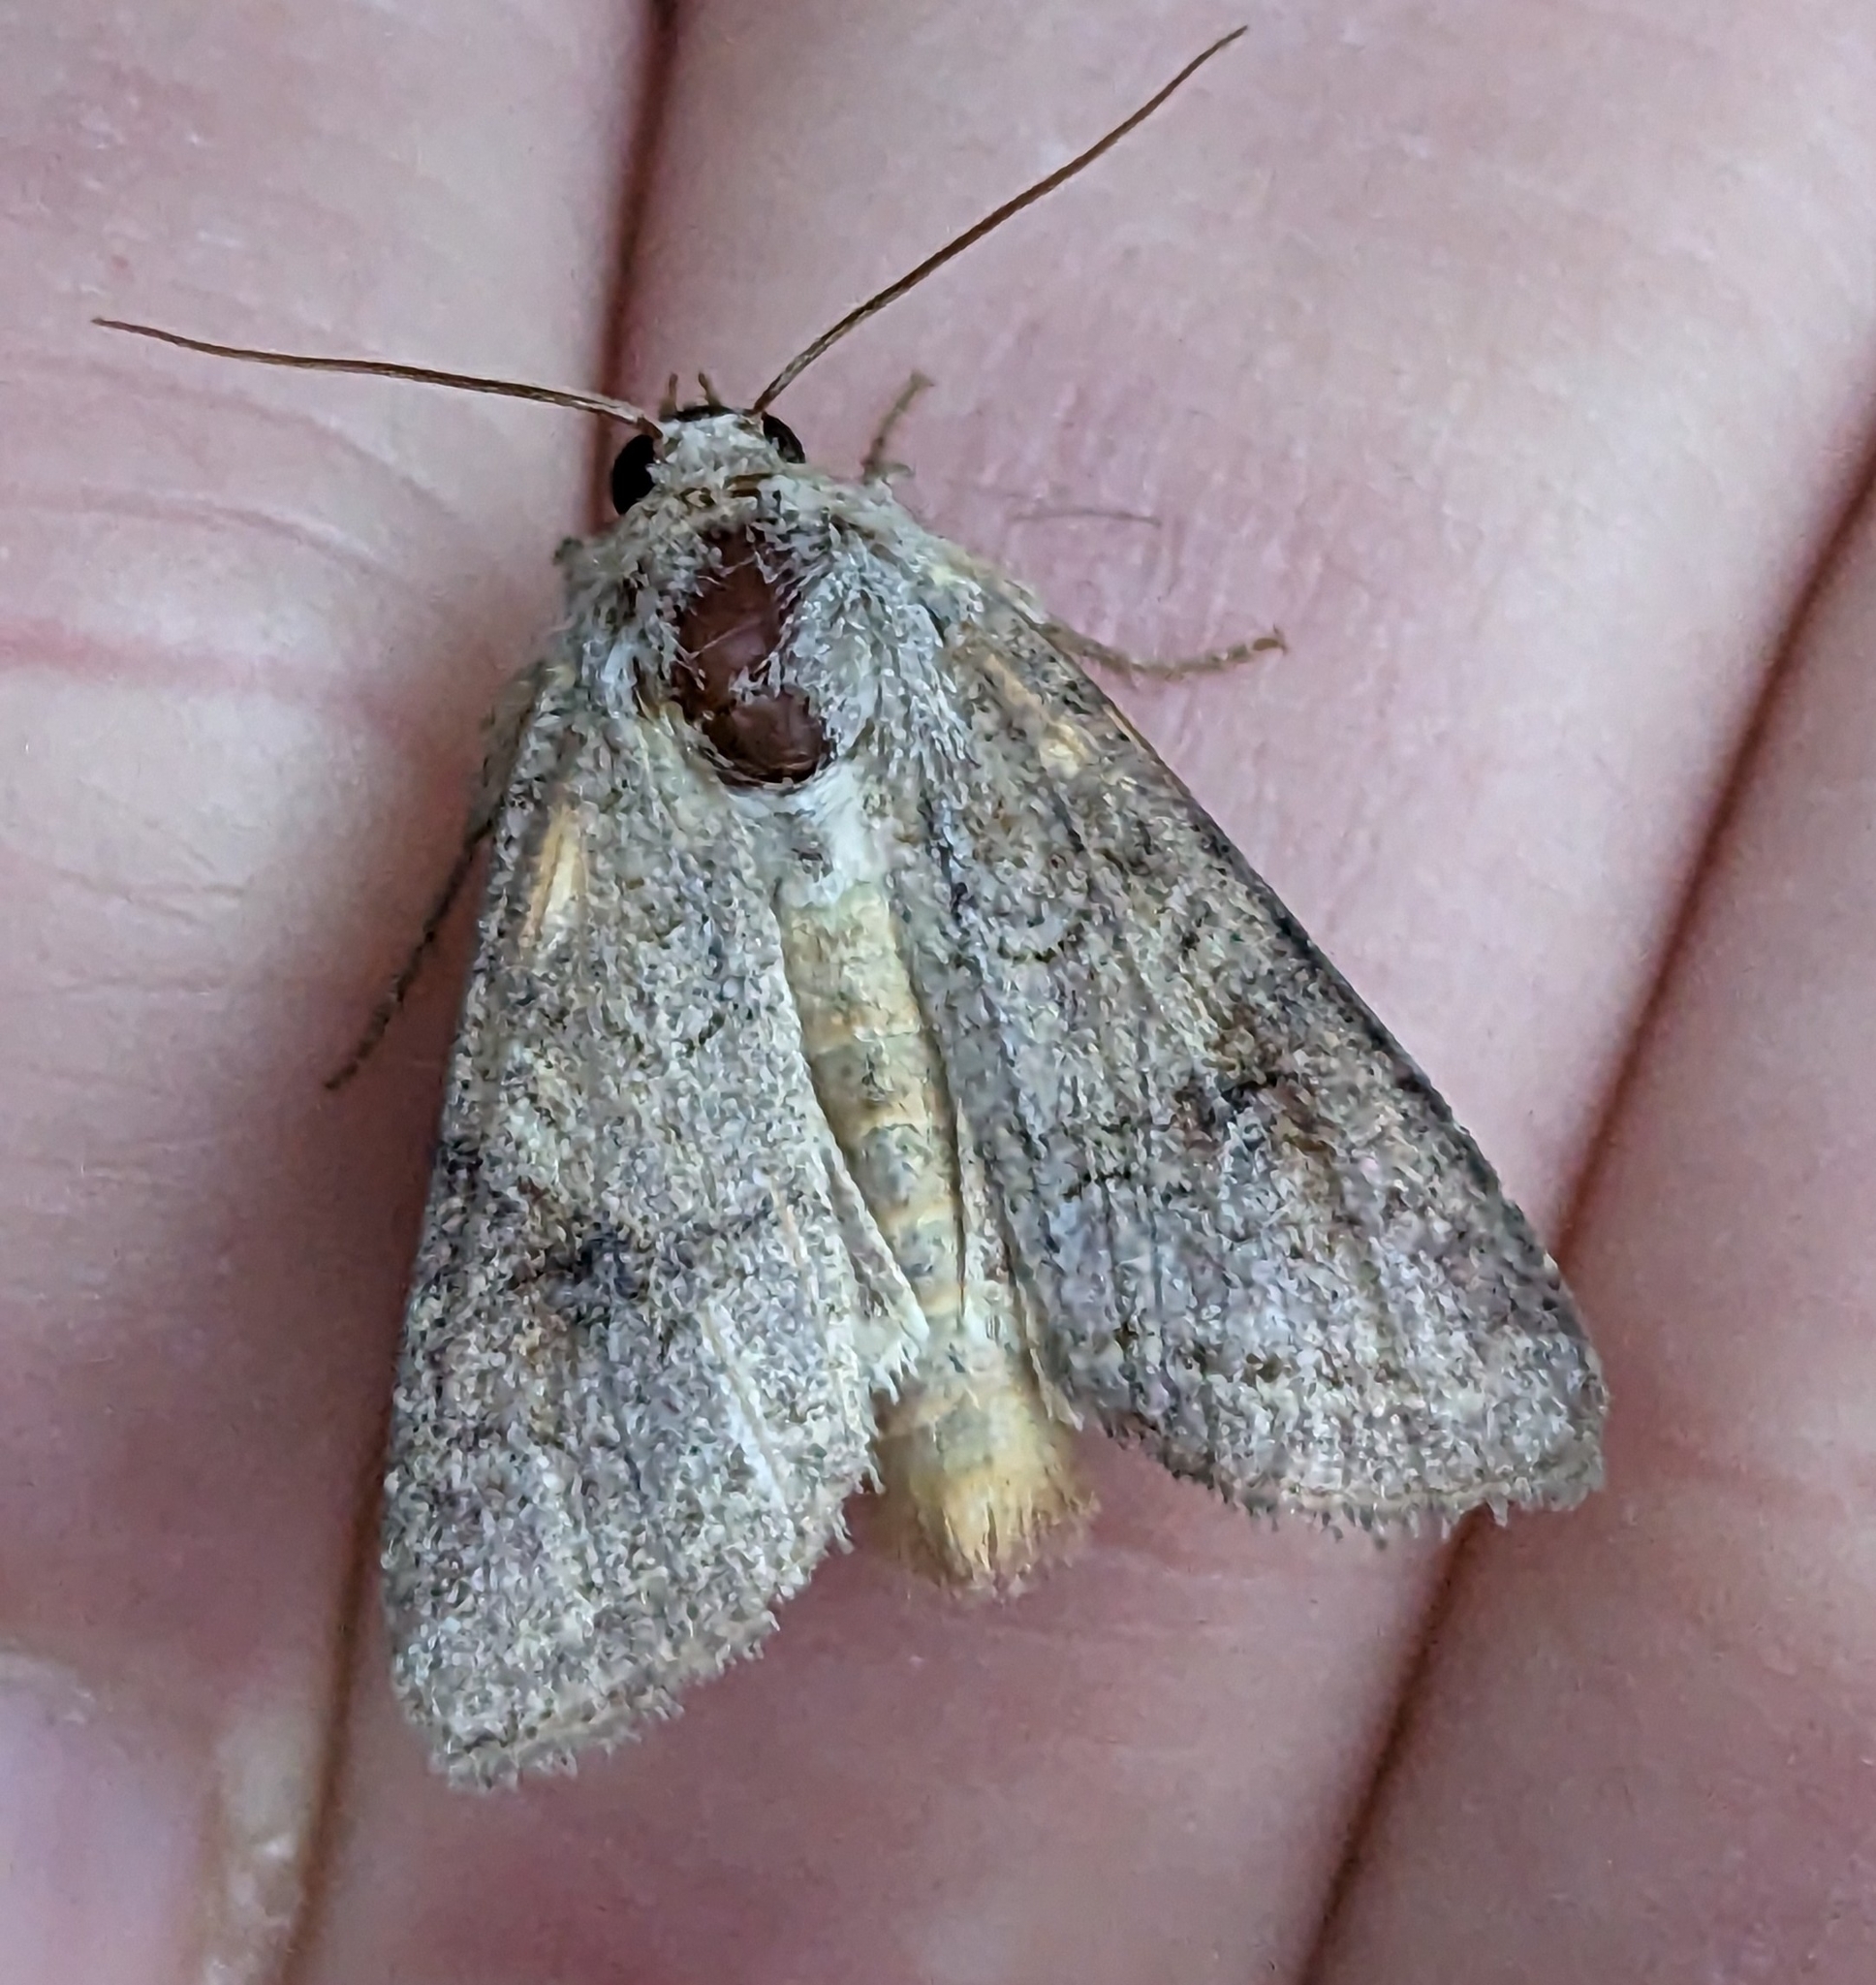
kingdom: Animalia
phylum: Arthropoda
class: Insecta
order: Lepidoptera
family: Noctuidae
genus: Trichordestra
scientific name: Trichordestra lilacina
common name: Aster cutworm
